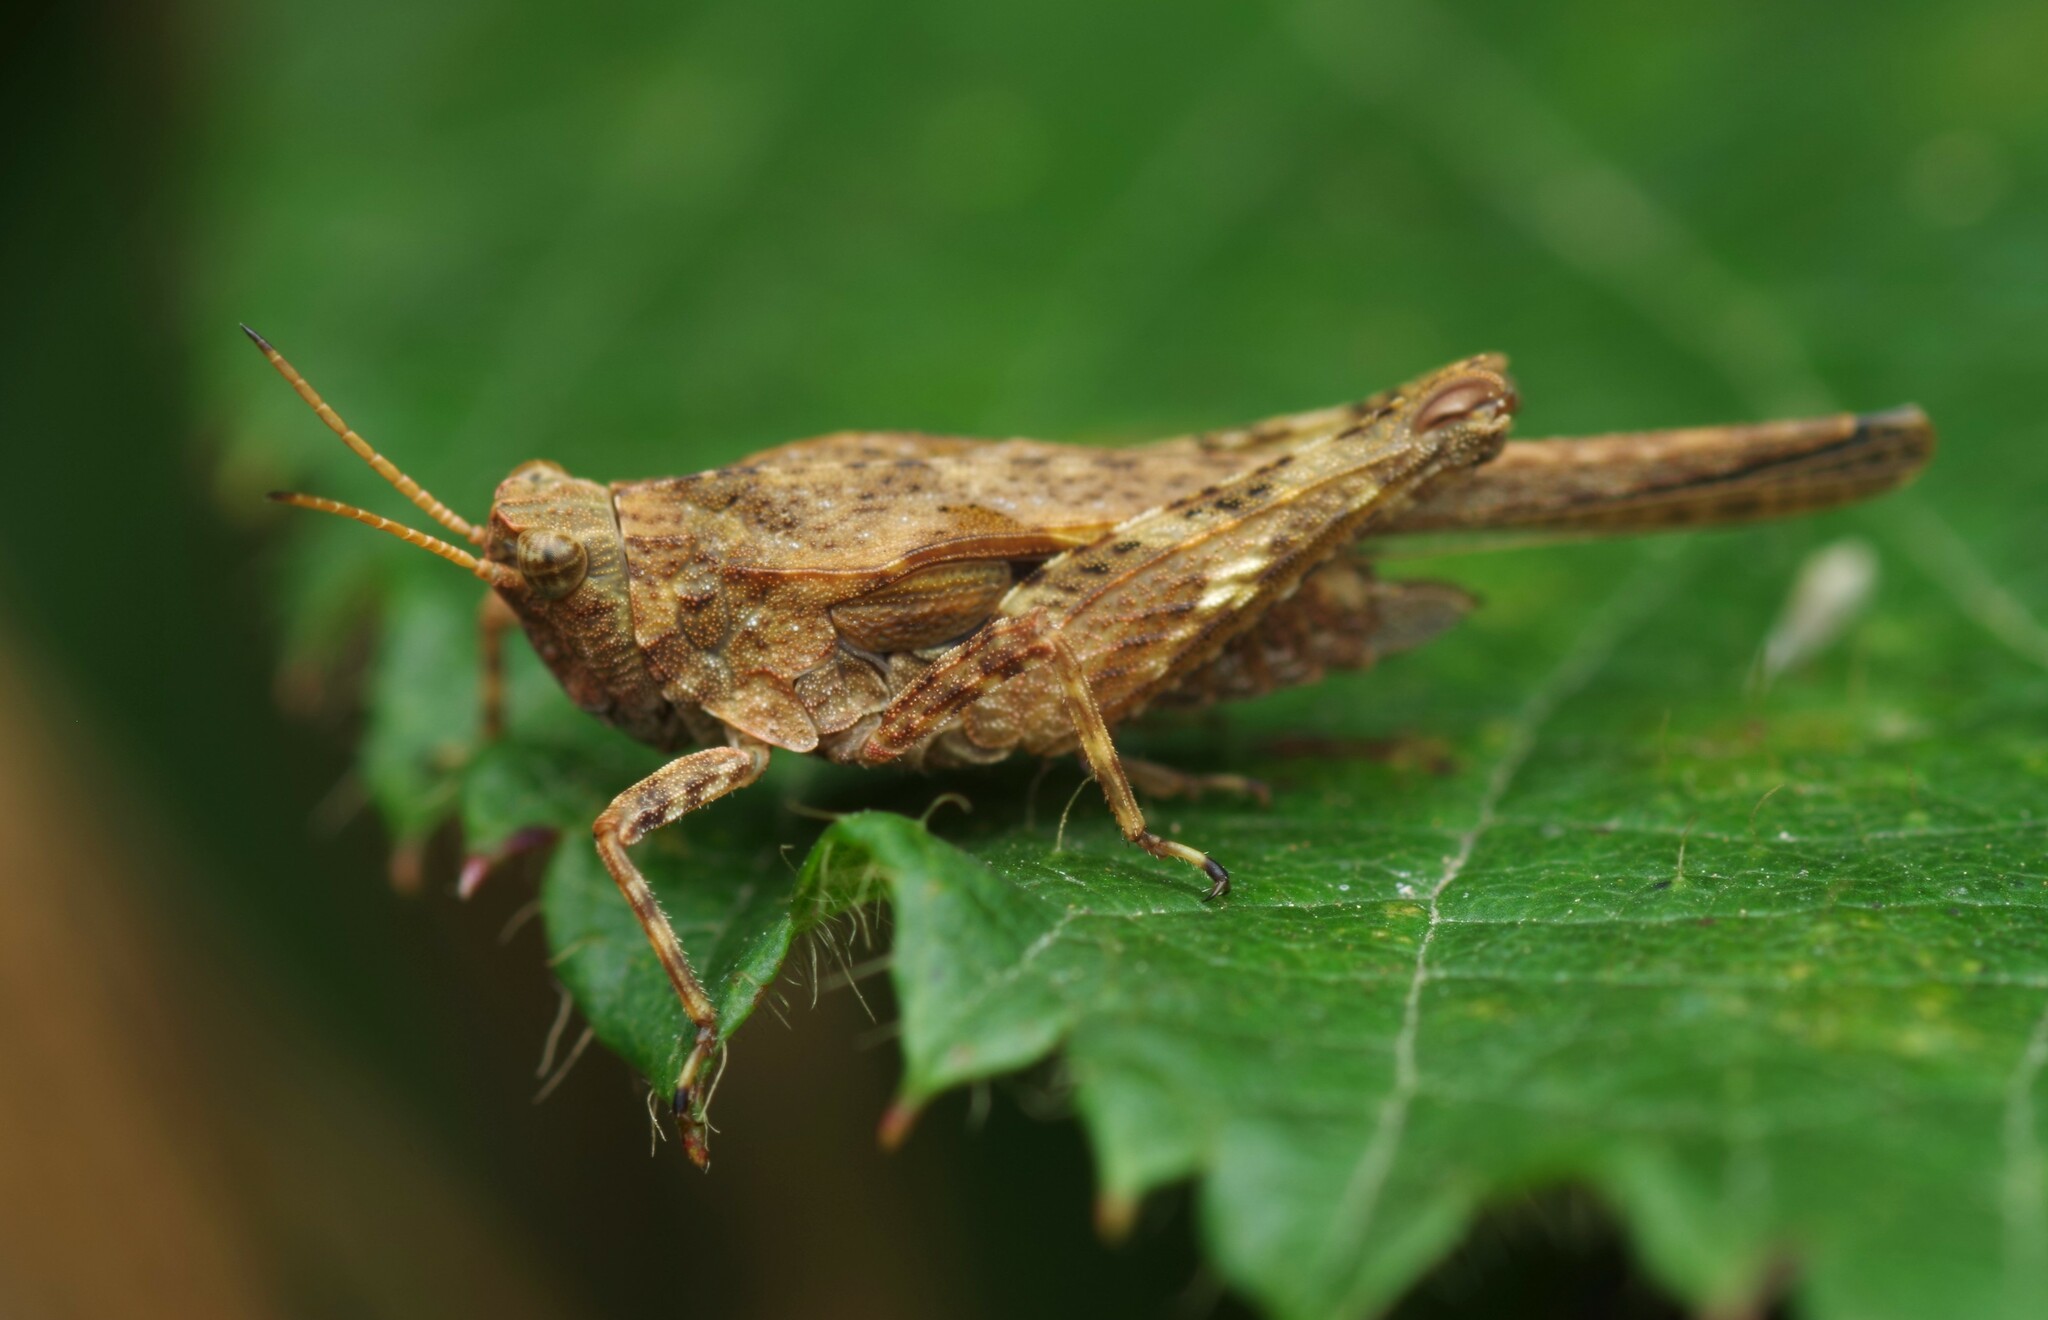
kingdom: Animalia
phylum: Arthropoda
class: Insecta
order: Orthoptera
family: Tetrigidae
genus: Tetrix
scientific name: Tetrix subulata
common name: Slender ground-hopper
